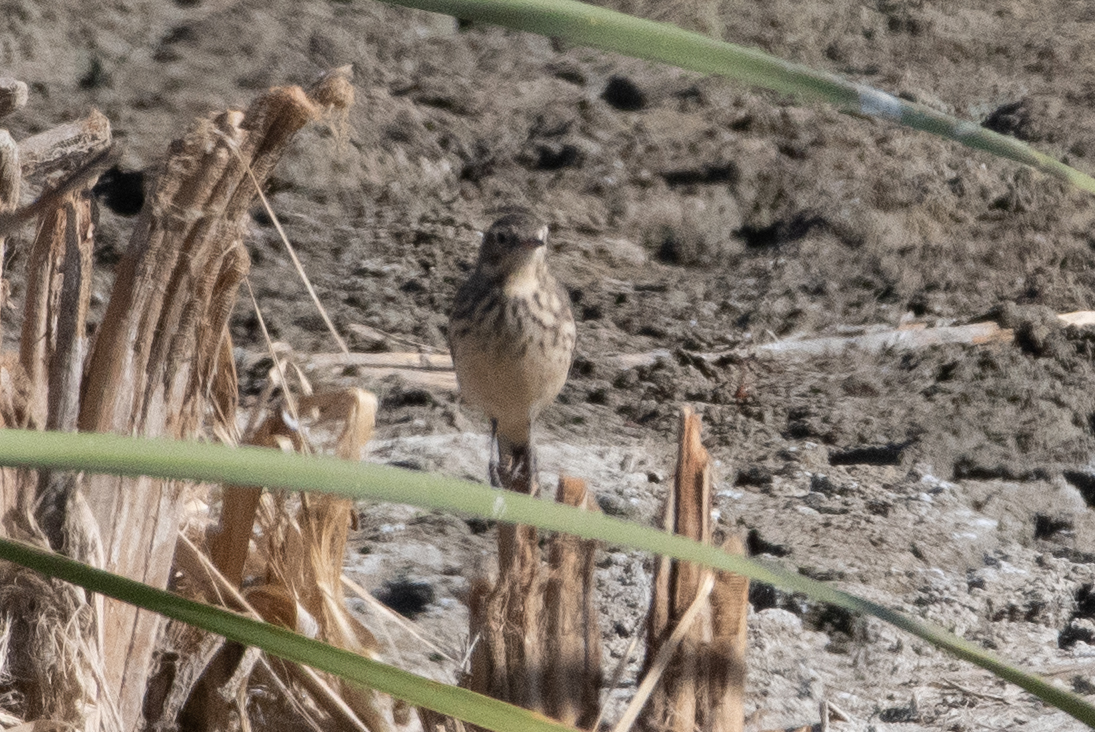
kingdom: Animalia
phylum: Chordata
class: Aves
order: Passeriformes
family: Motacillidae
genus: Anthus
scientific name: Anthus rubescens
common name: Buff-bellied pipit
